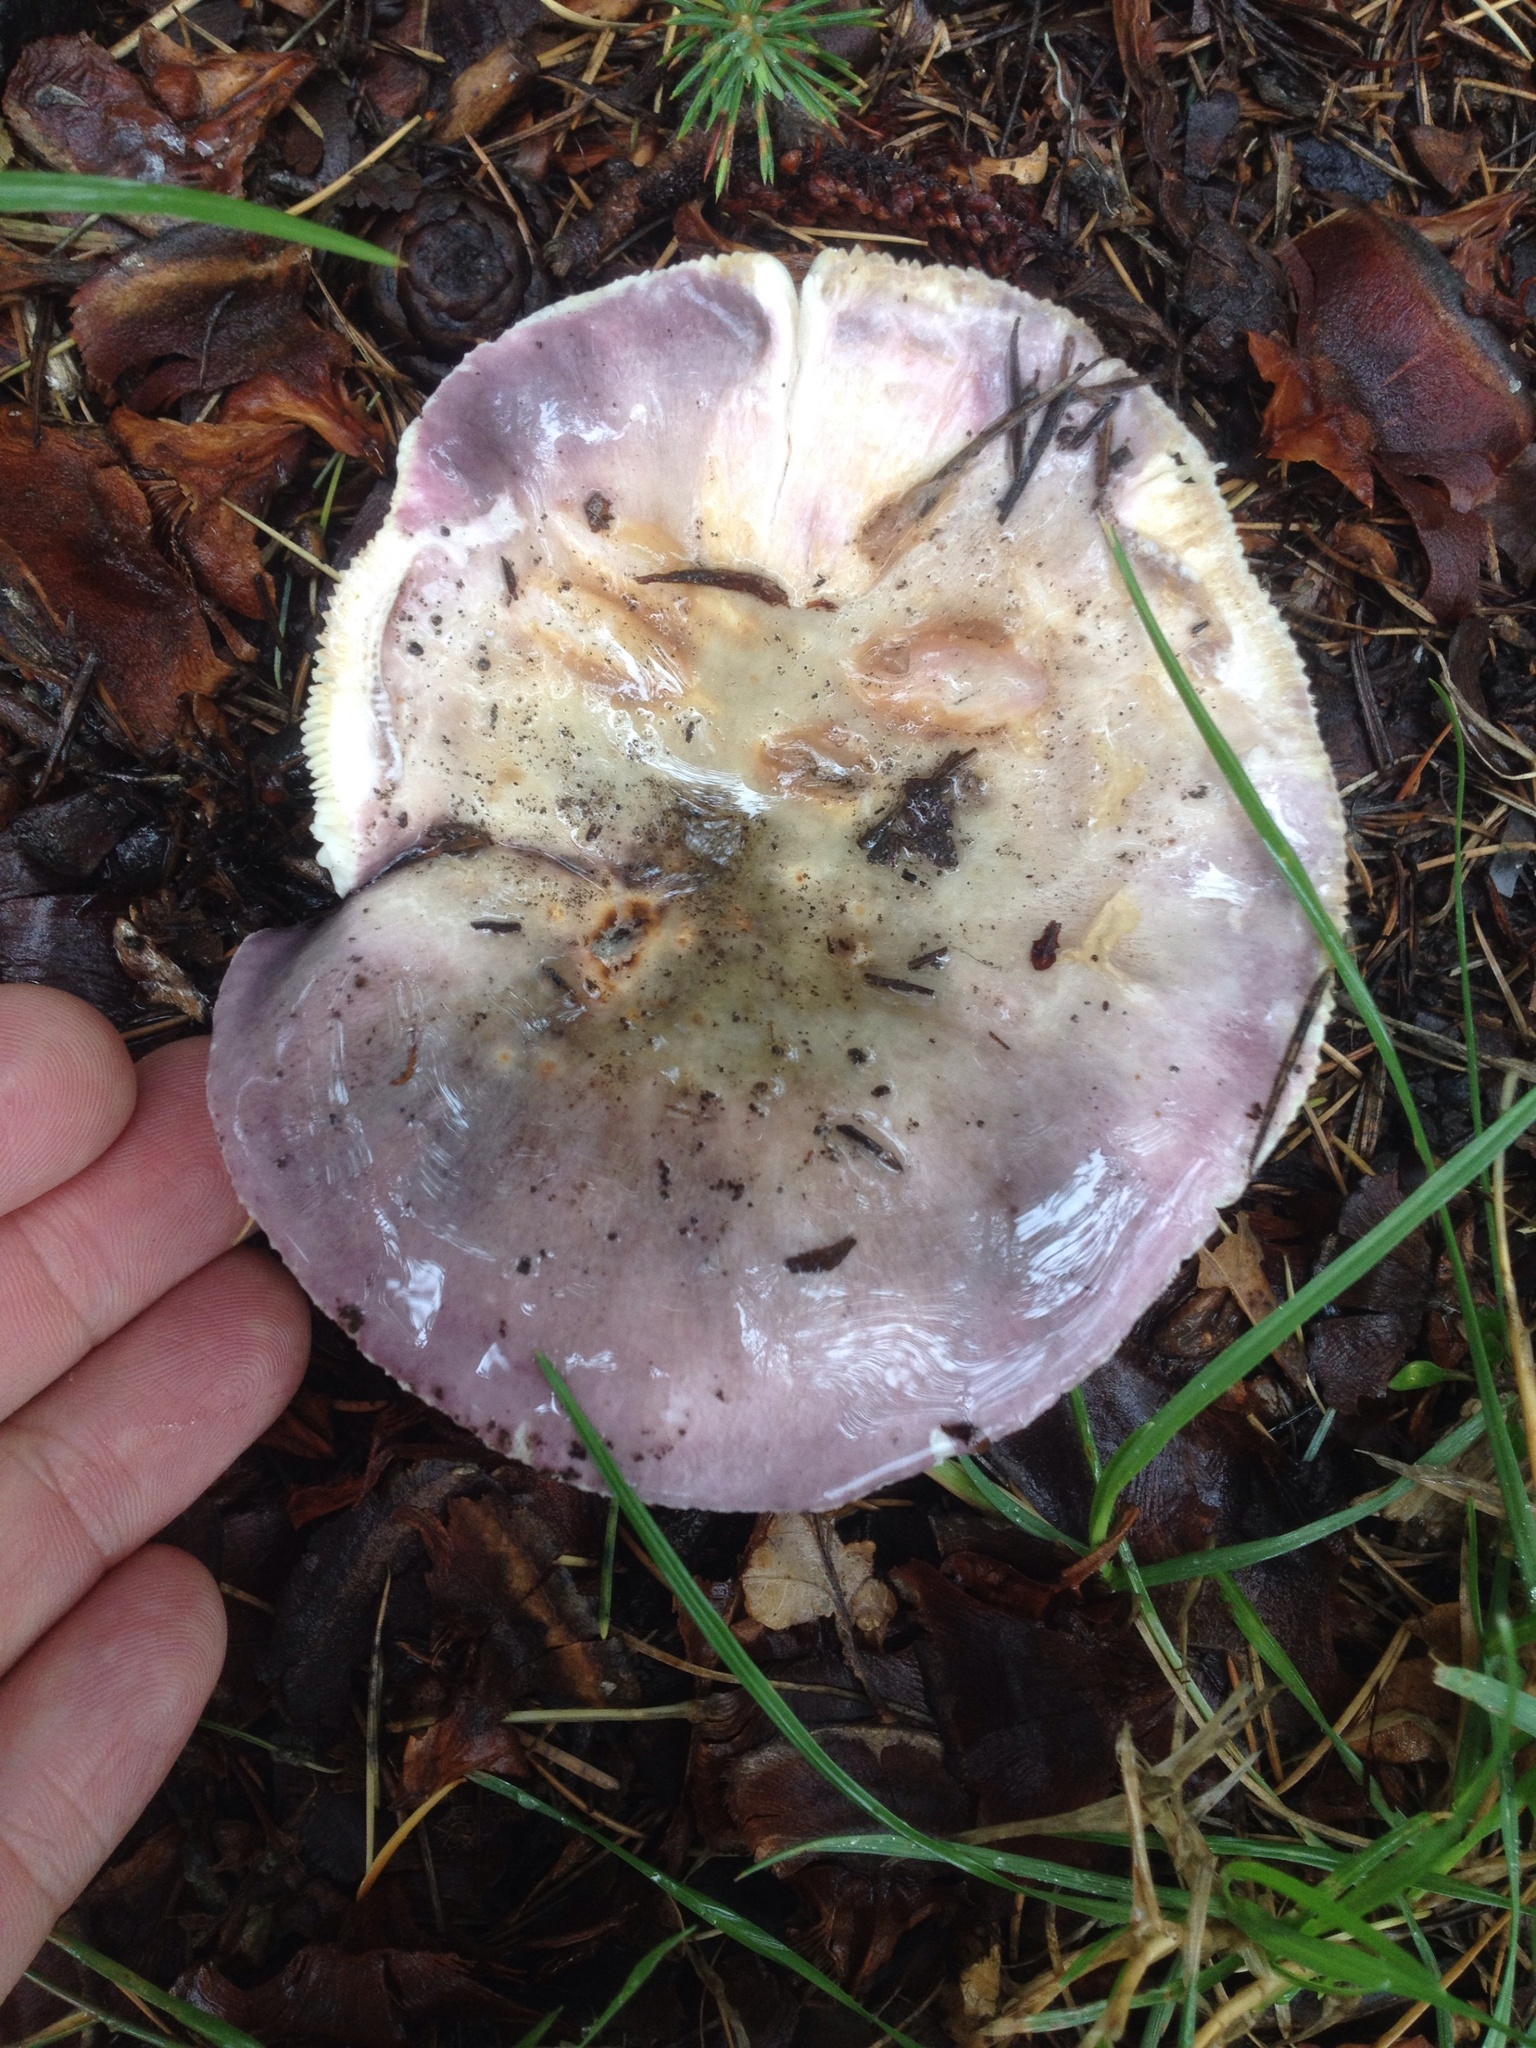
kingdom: Fungi
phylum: Basidiomycota
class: Agaricomycetes
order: Russulales
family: Russulaceae
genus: Russula
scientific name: Russula grisea
